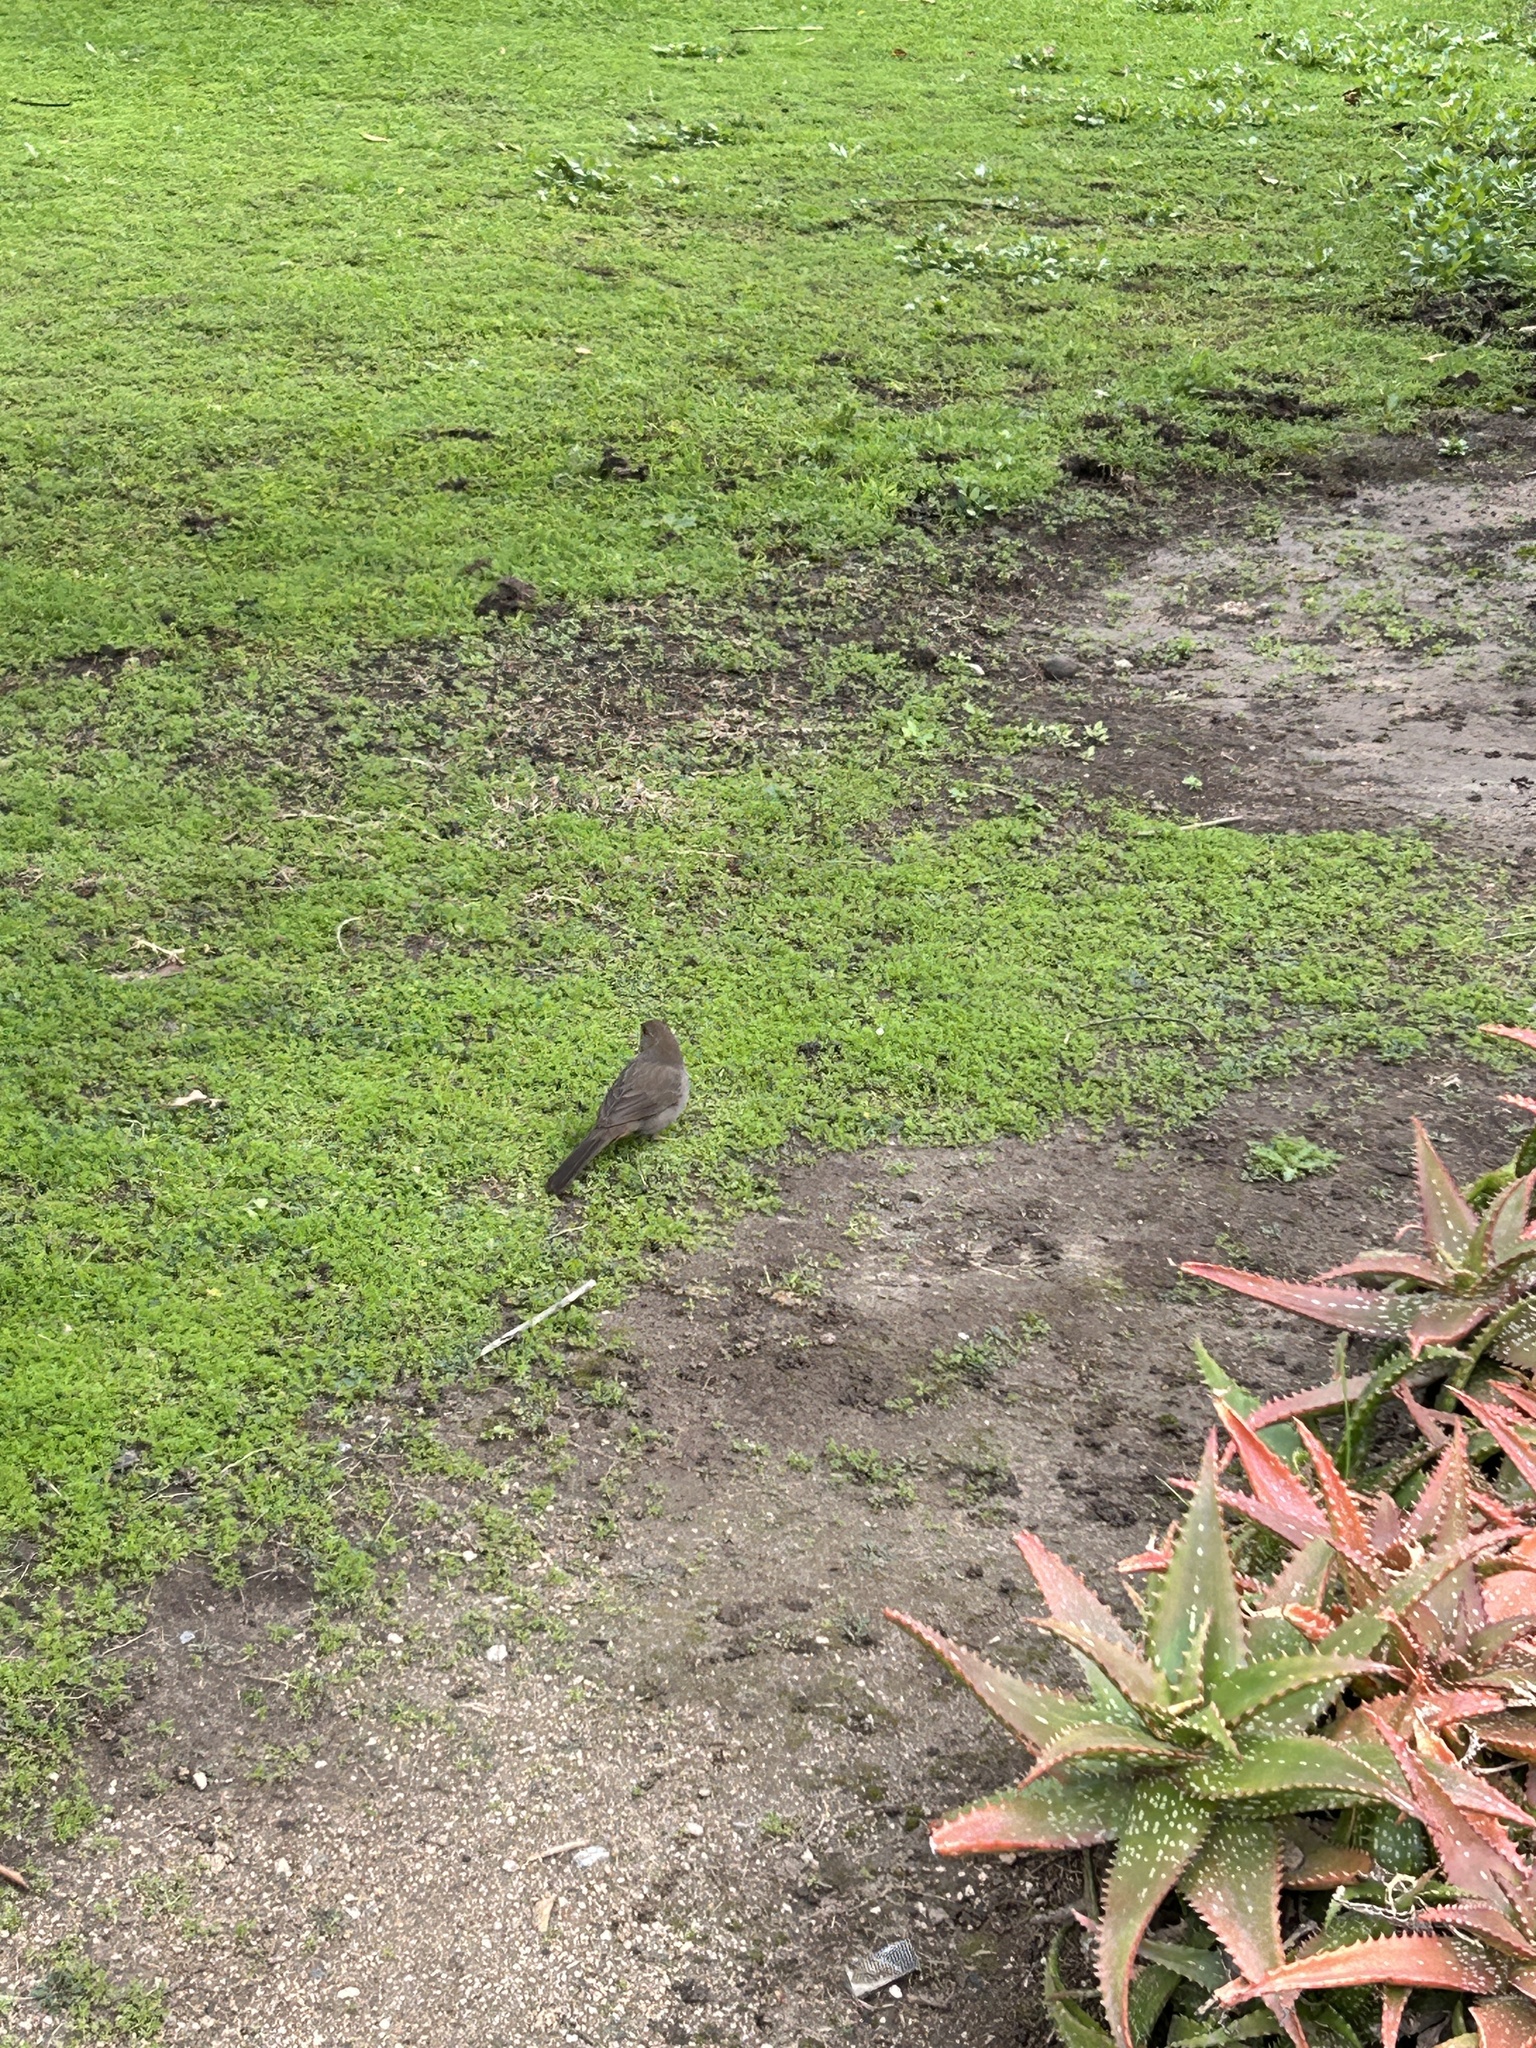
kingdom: Animalia
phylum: Chordata
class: Aves
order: Passeriformes
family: Passerellidae
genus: Melozone
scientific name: Melozone crissalis
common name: California towhee
